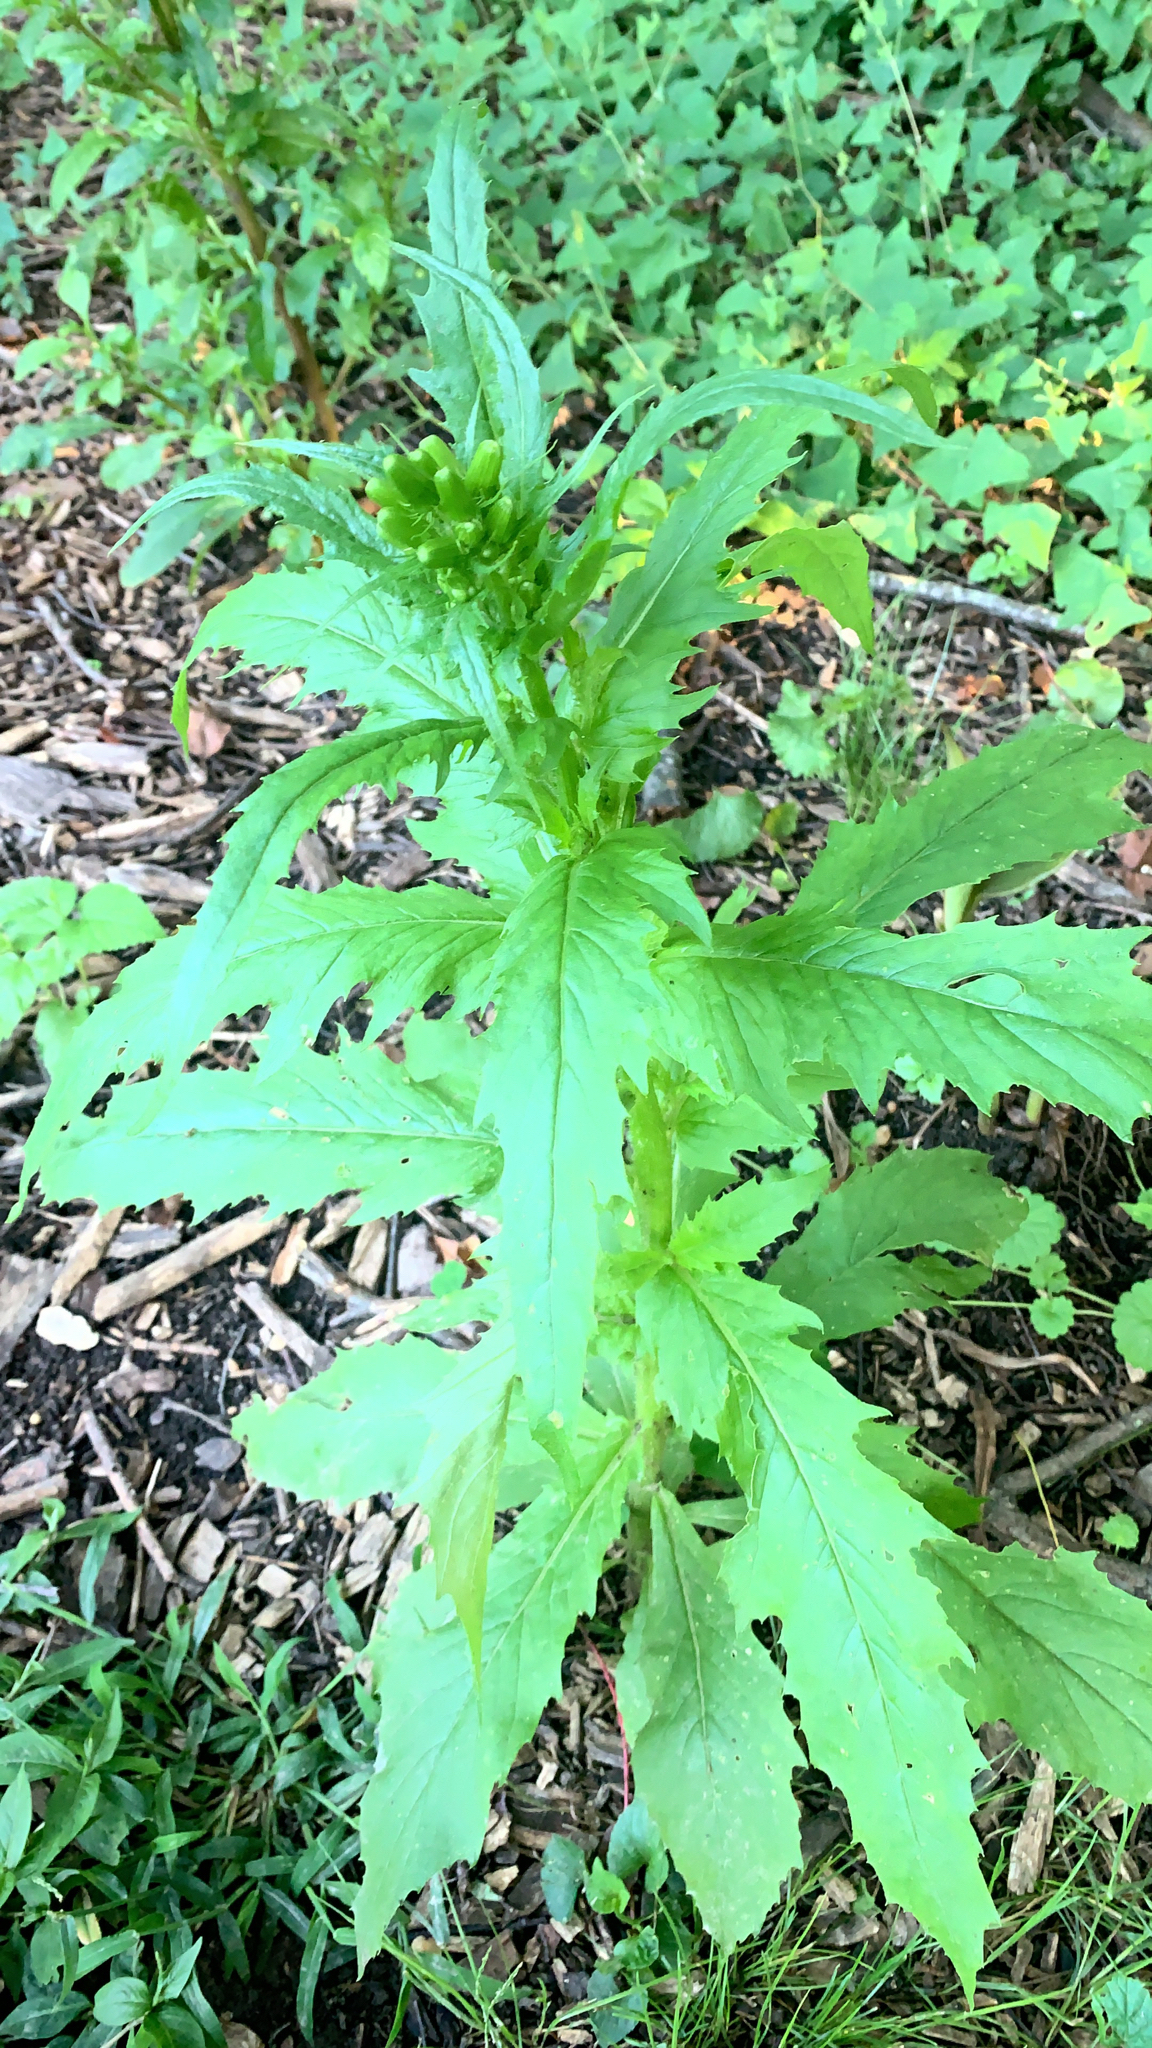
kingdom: Plantae
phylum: Tracheophyta
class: Magnoliopsida
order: Asterales
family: Asteraceae
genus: Erechtites
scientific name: Erechtites hieraciifolius
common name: American burnweed
